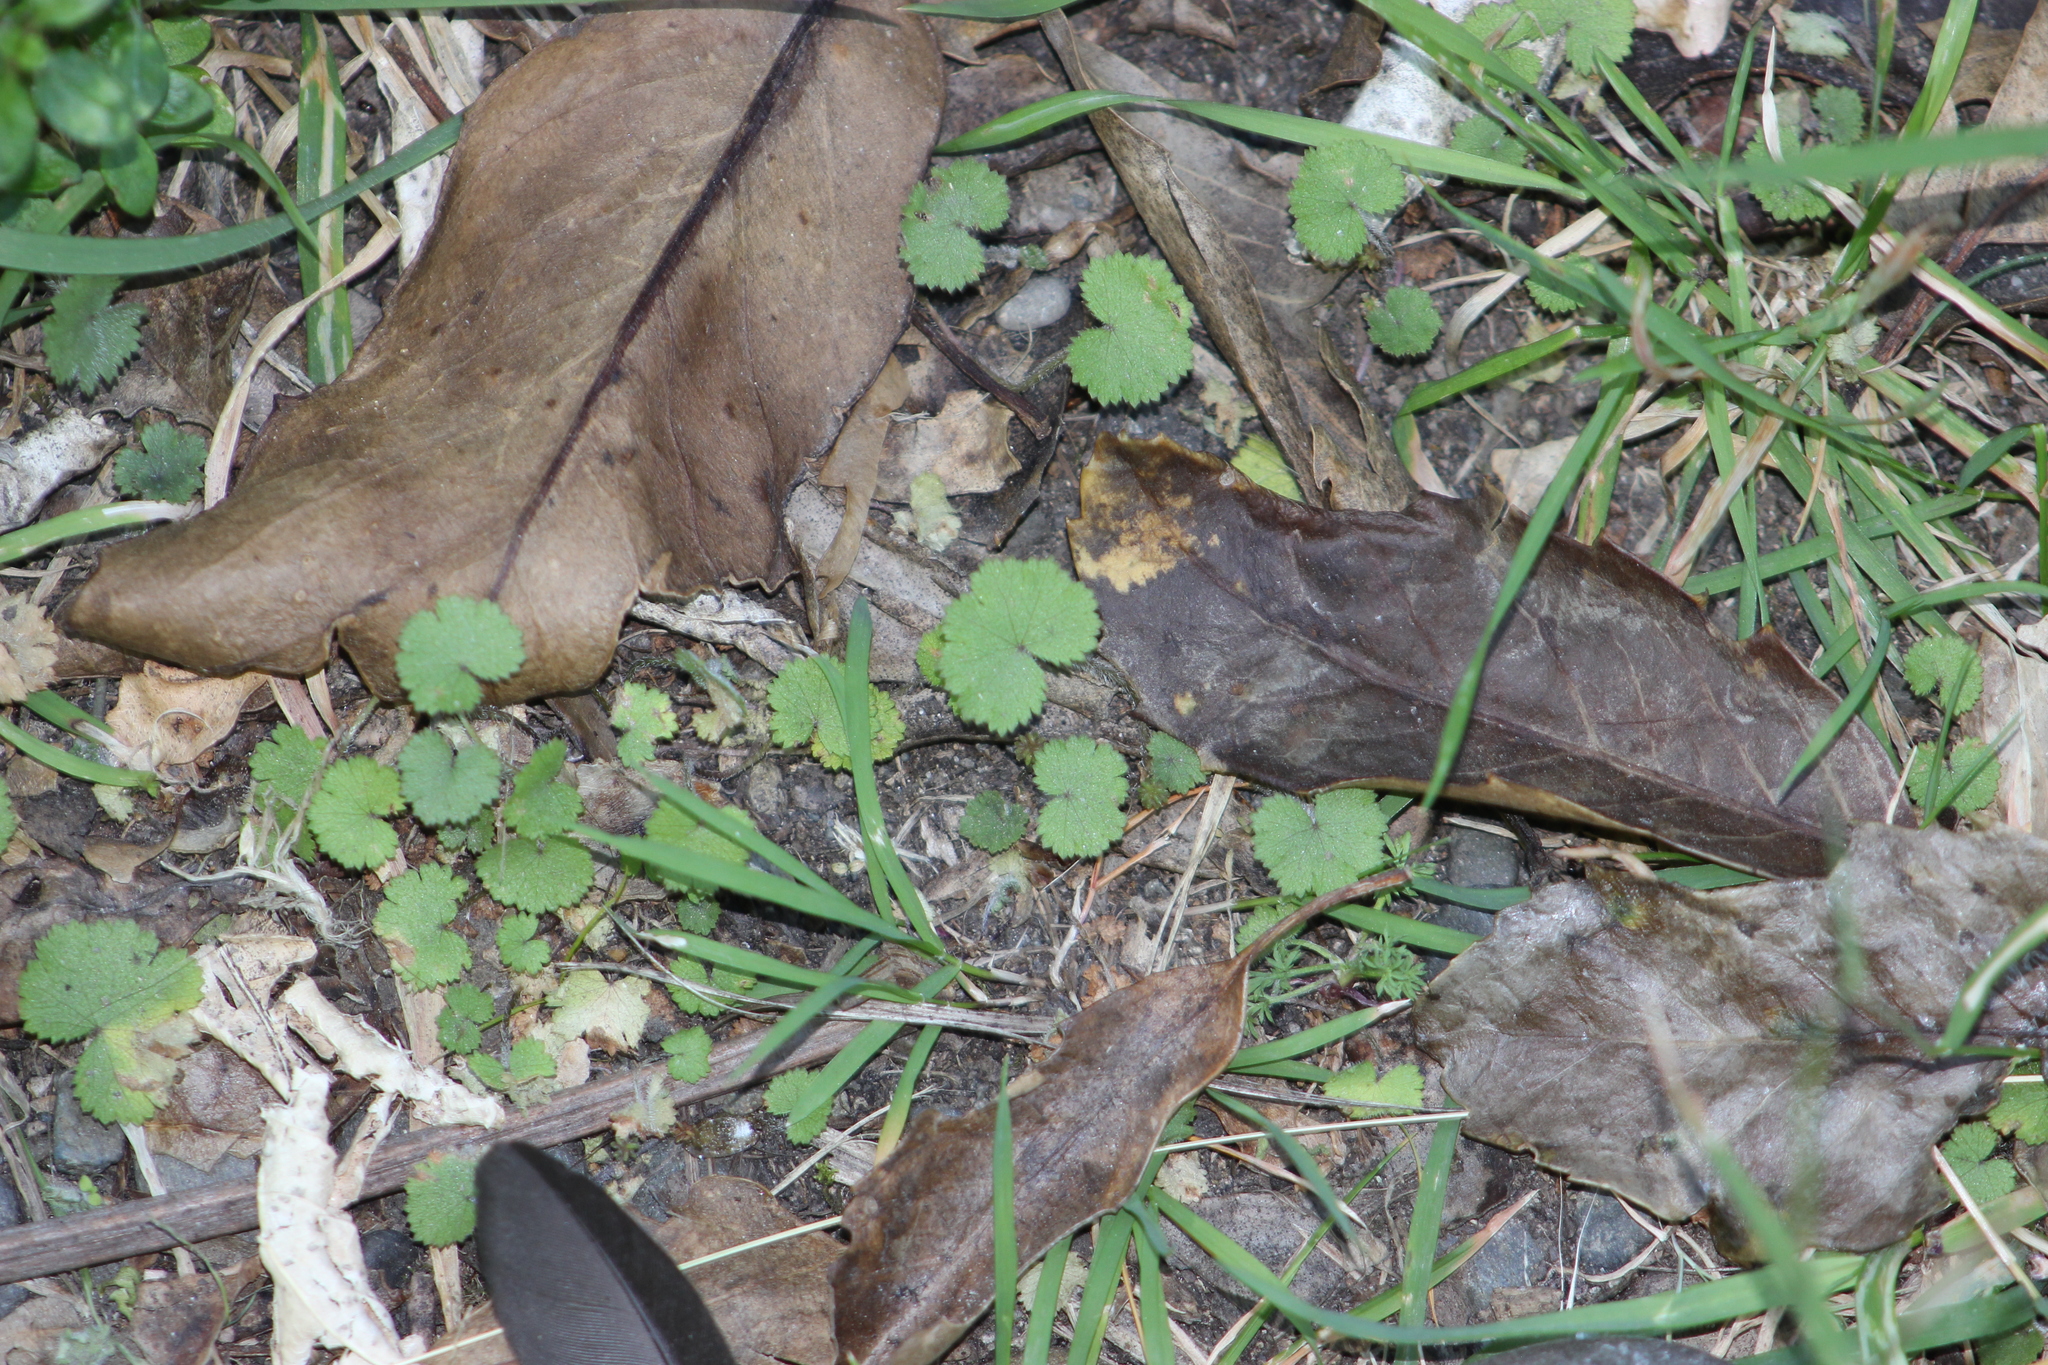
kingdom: Plantae
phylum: Tracheophyta
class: Magnoliopsida
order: Apiales
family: Araliaceae
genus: Hydrocotyle
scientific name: Hydrocotyle moschata
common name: Hairy pennywort
